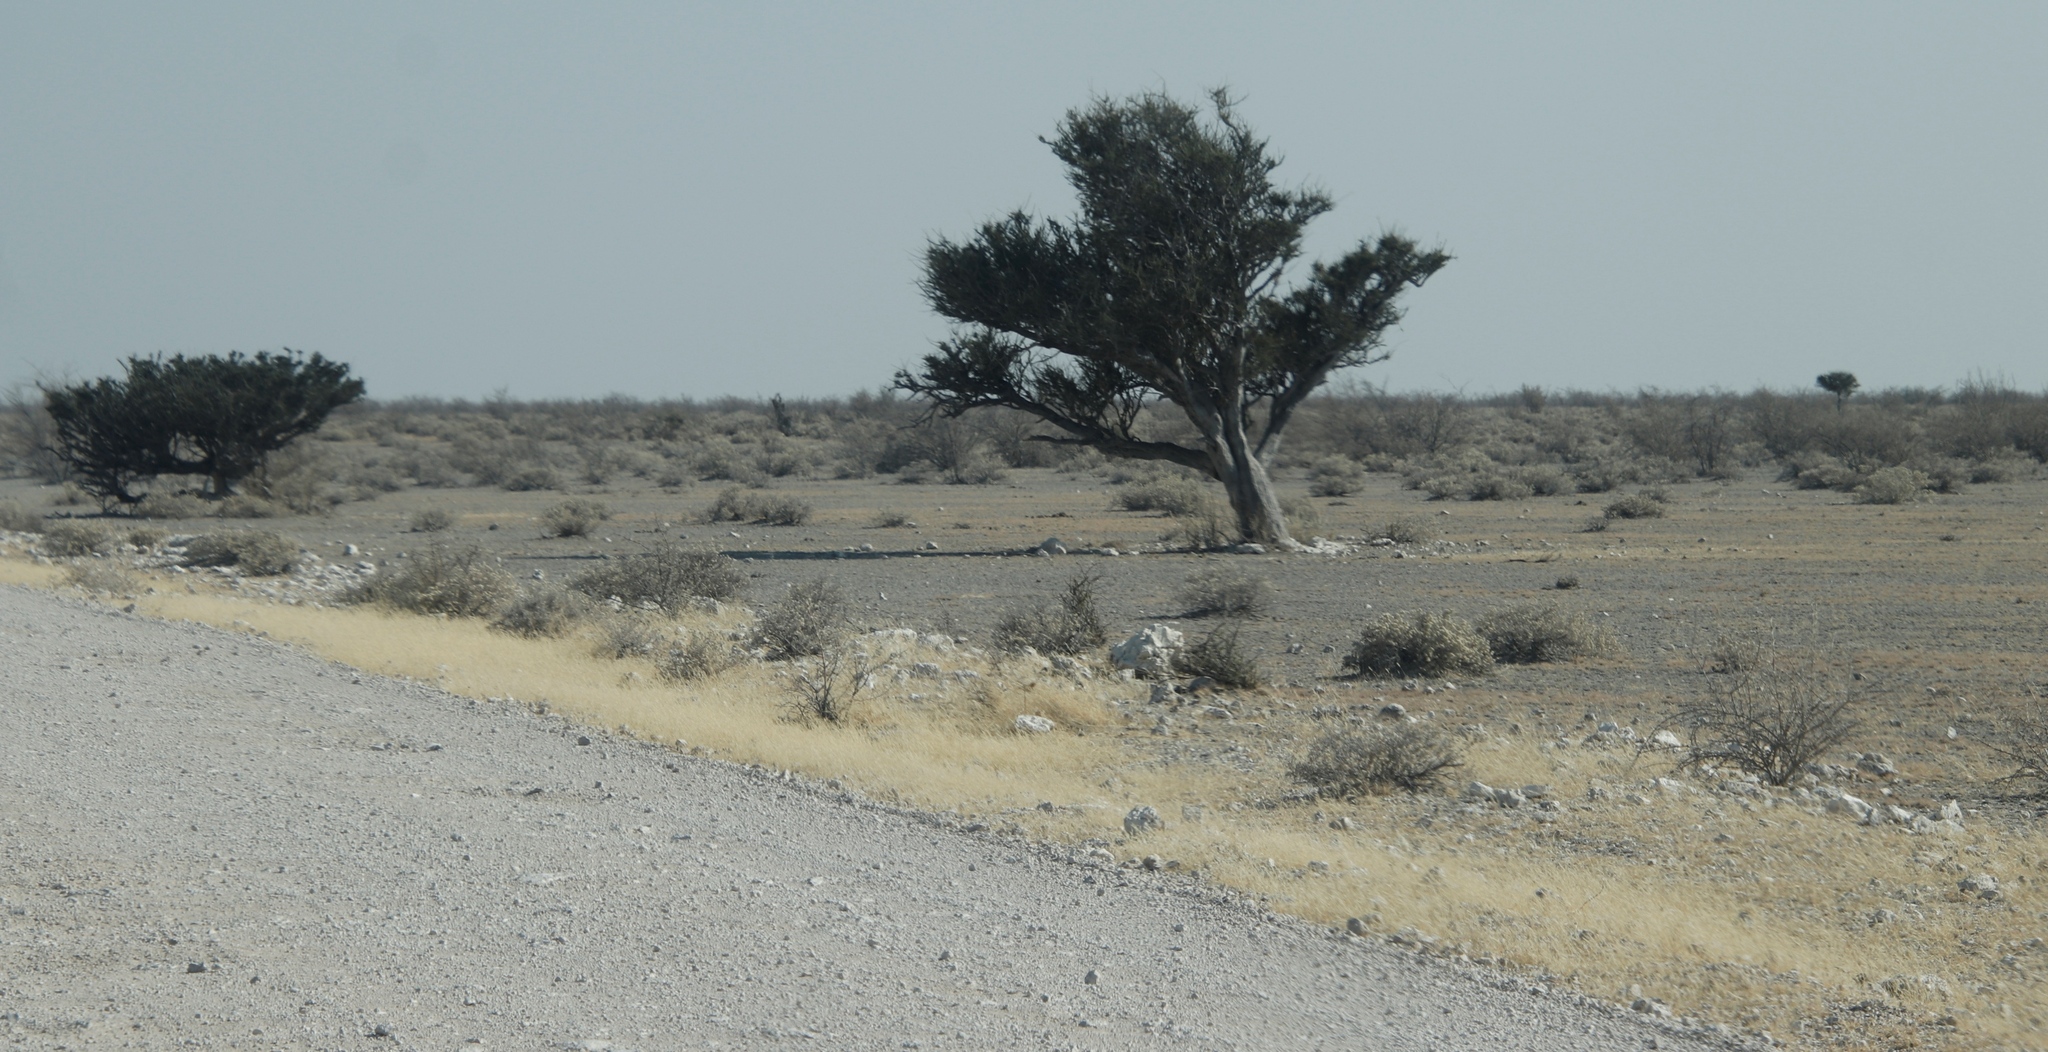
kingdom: Plantae
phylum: Tracheophyta
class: Magnoliopsida
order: Brassicales
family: Capparaceae
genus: Boscia
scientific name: Boscia albitrunca
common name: Caper bush
